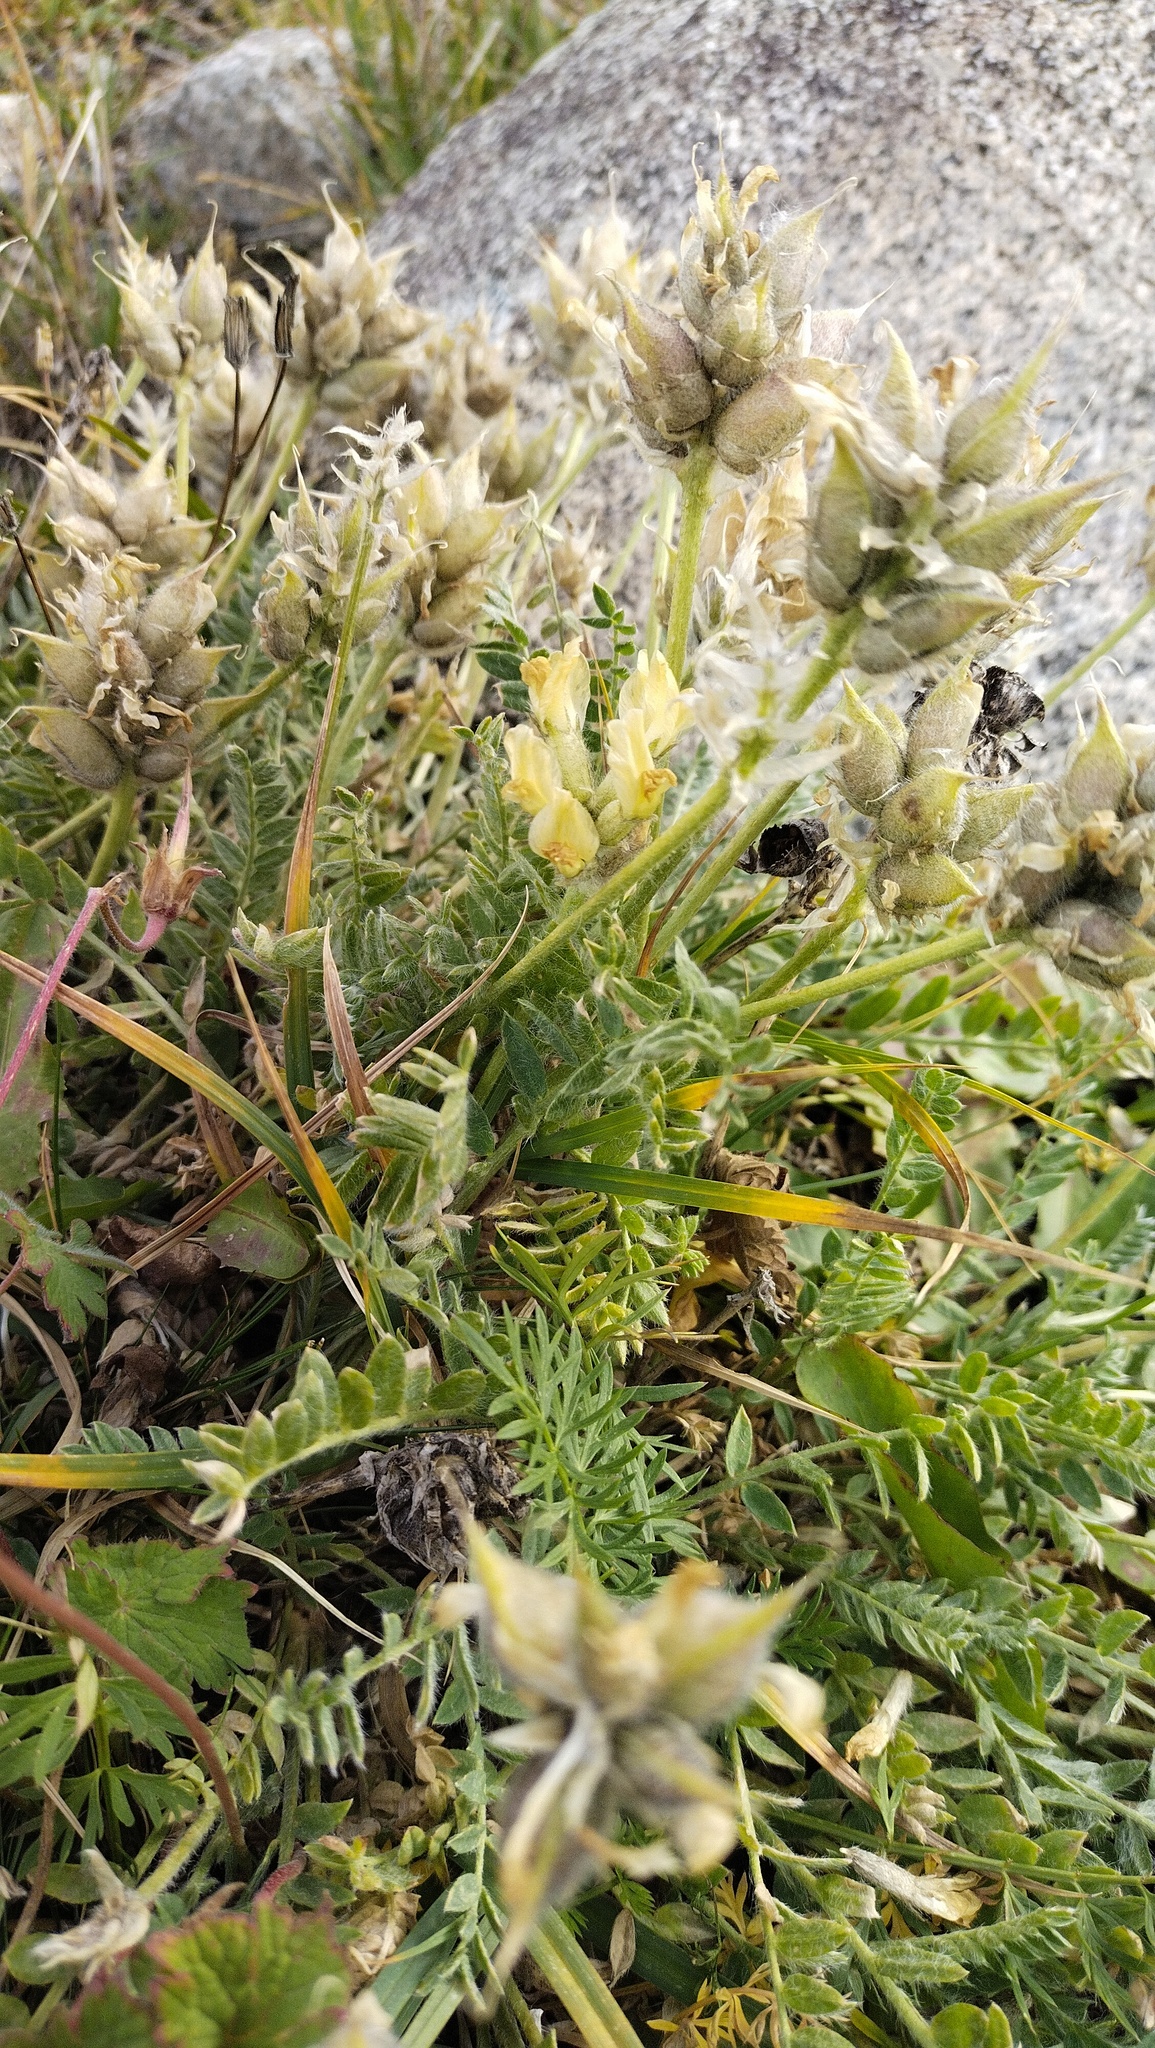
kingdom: Plantae
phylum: Tracheophyta
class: Magnoliopsida
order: Fabales
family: Fabaceae
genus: Oxytropis
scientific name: Oxytropis recognita
